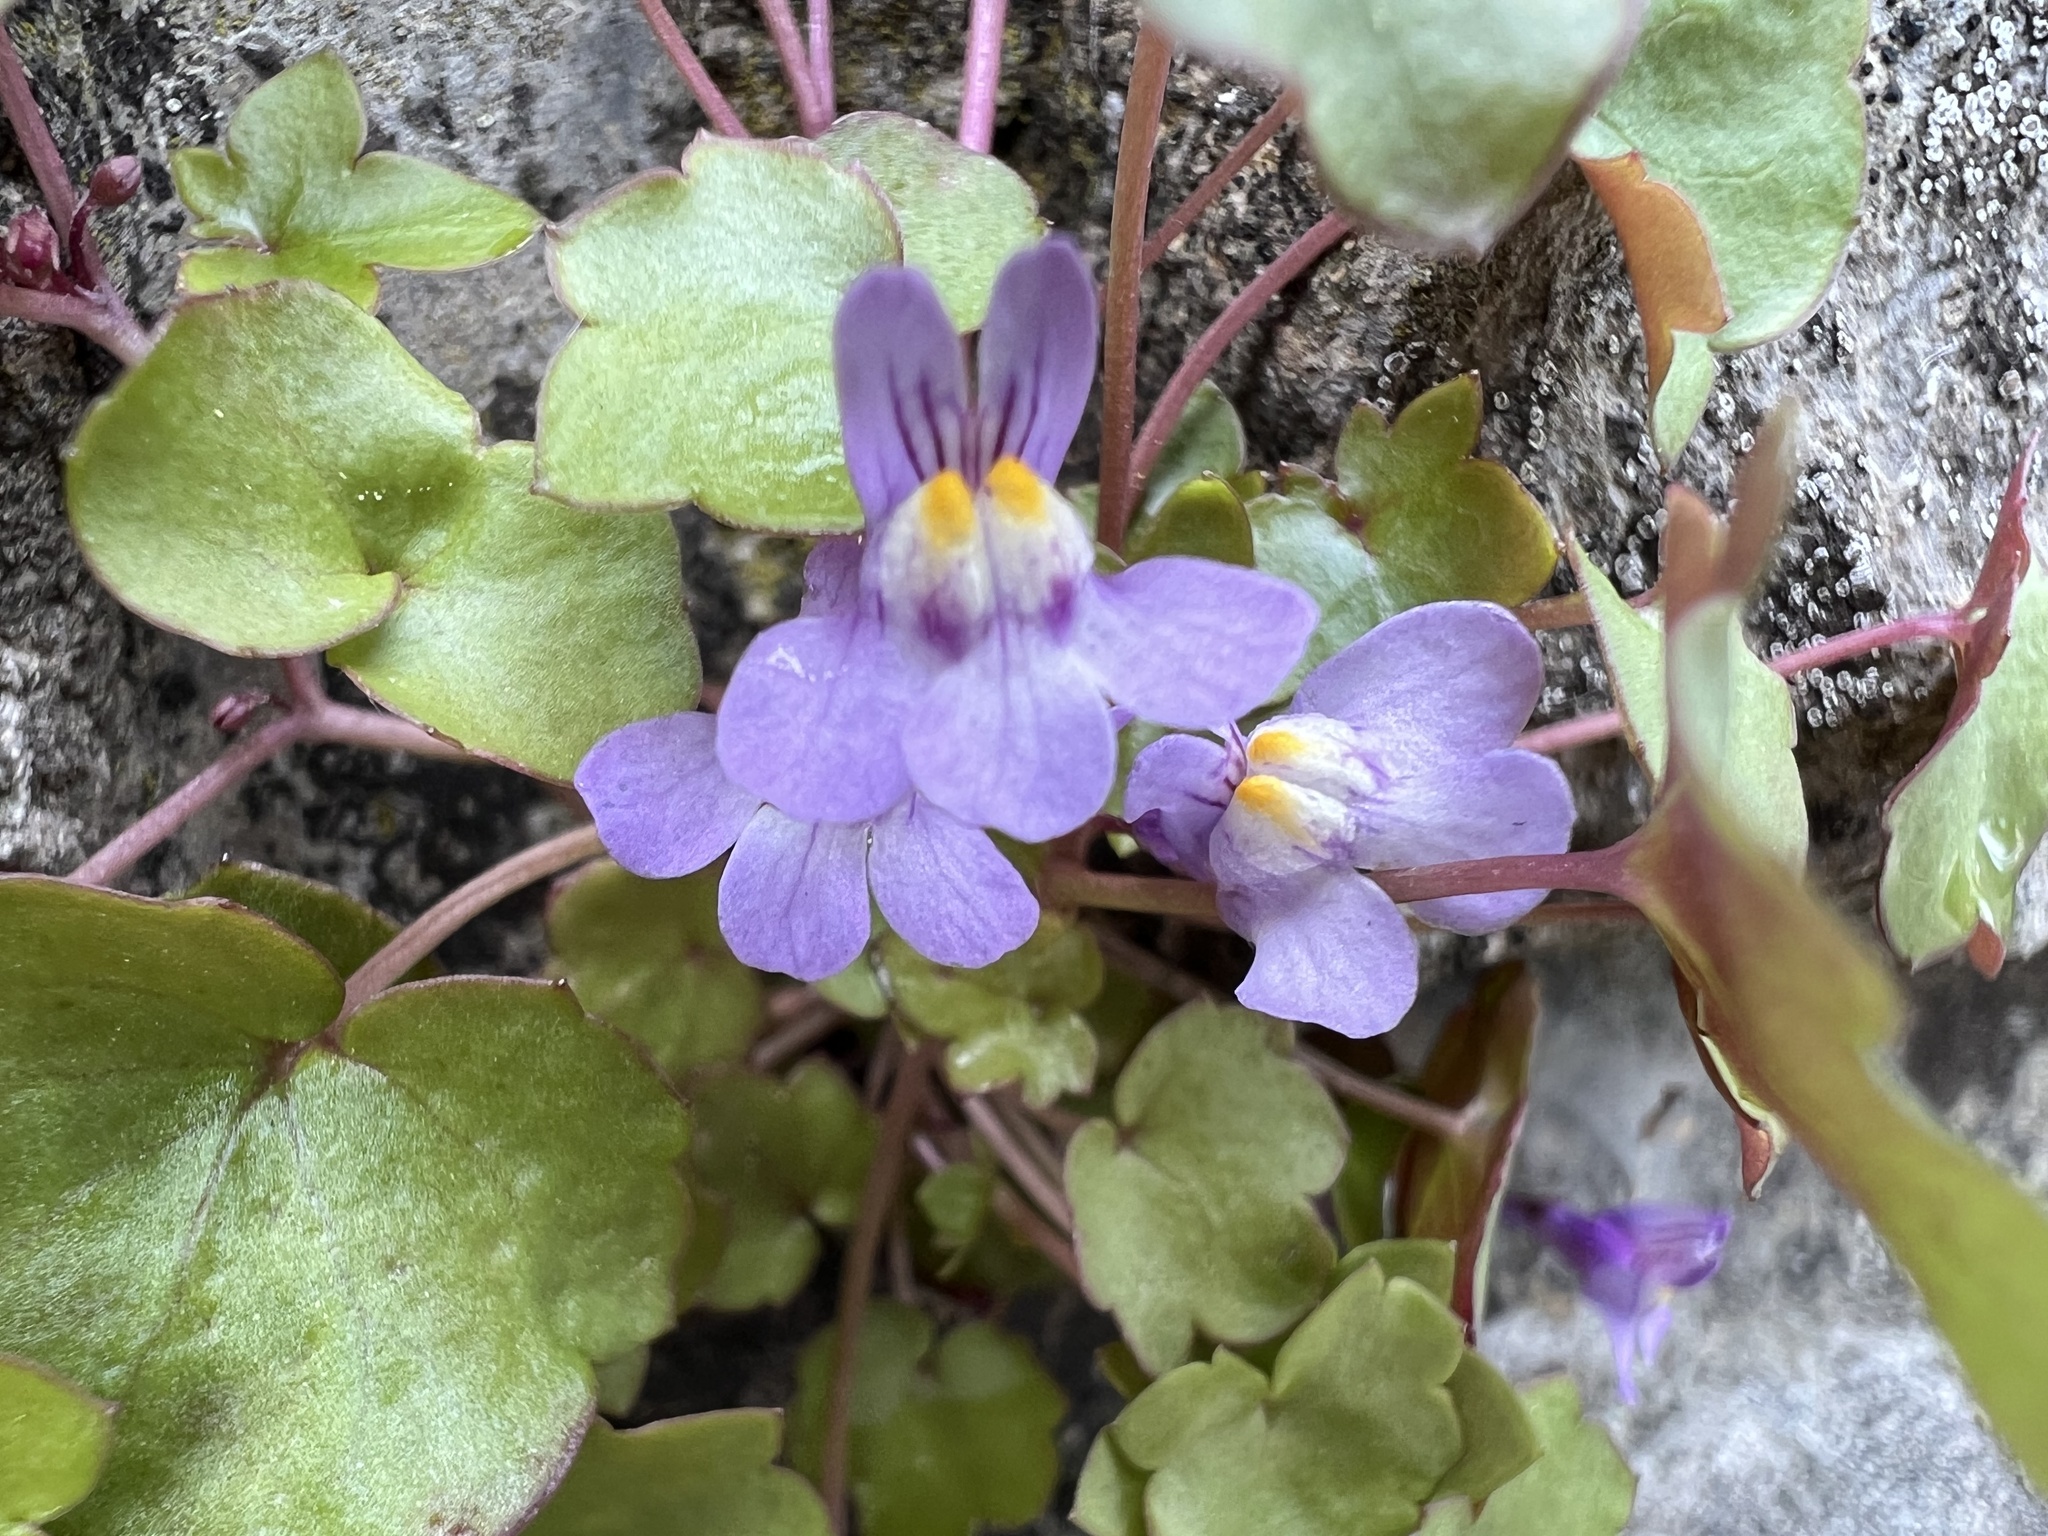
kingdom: Plantae
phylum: Tracheophyta
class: Magnoliopsida
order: Lamiales
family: Plantaginaceae
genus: Cymbalaria
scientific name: Cymbalaria muralis
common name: Ivy-leaved toadflax
